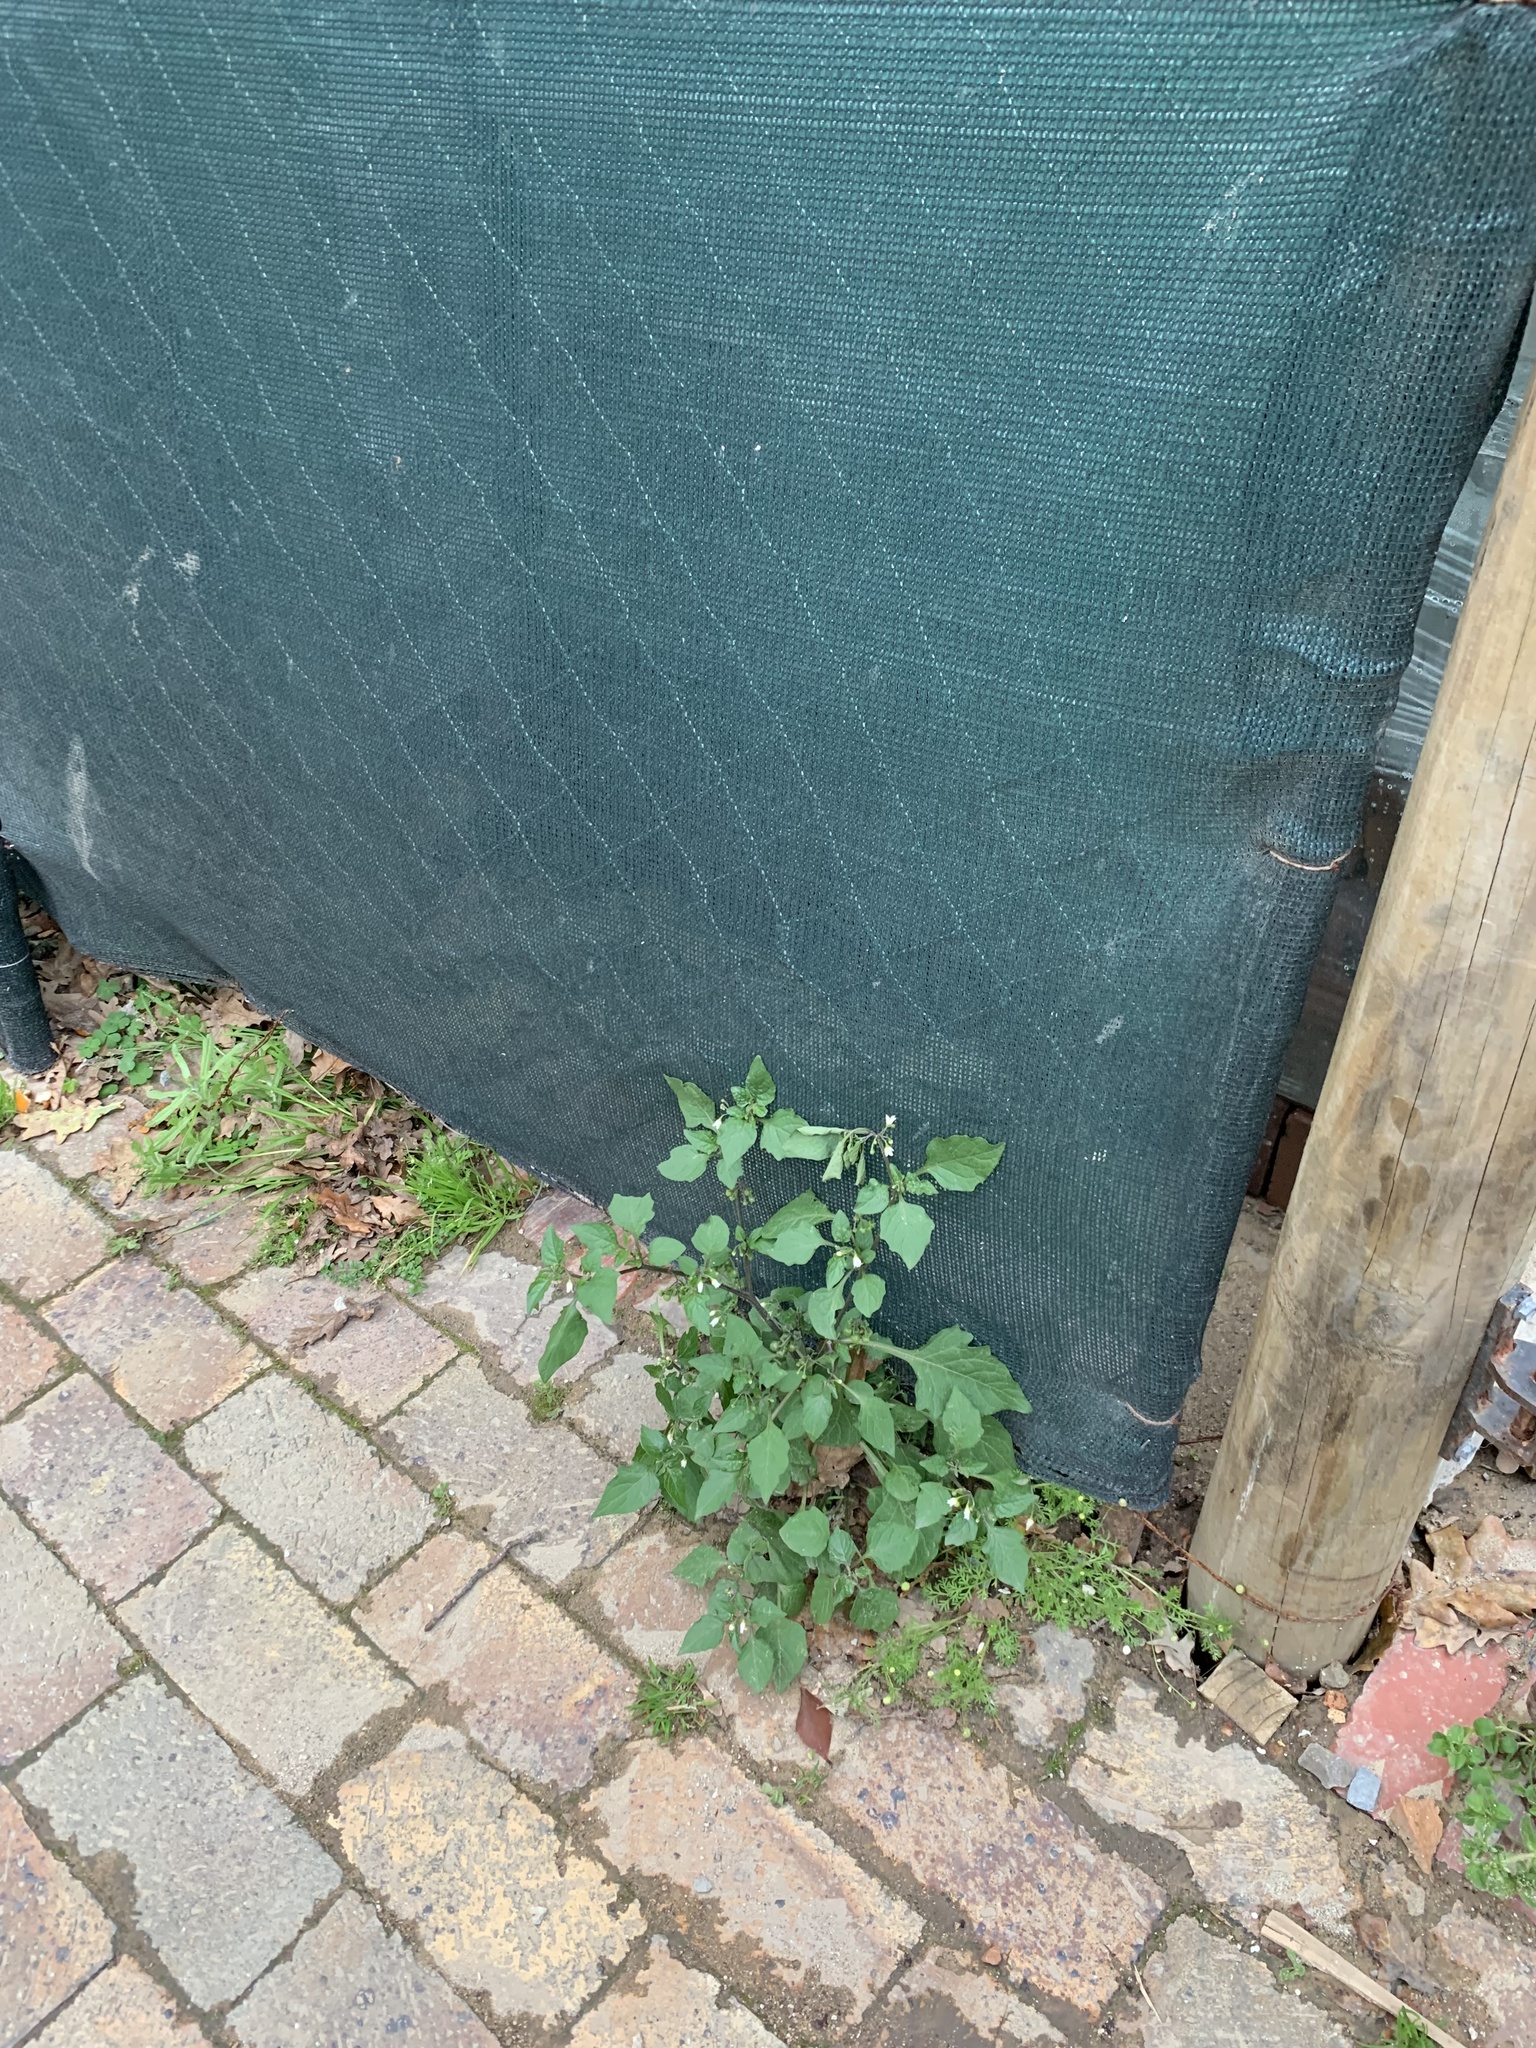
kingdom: Plantae
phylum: Tracheophyta
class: Magnoliopsida
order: Solanales
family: Solanaceae
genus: Solanum
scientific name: Solanum nigrum
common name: Black nightshade
